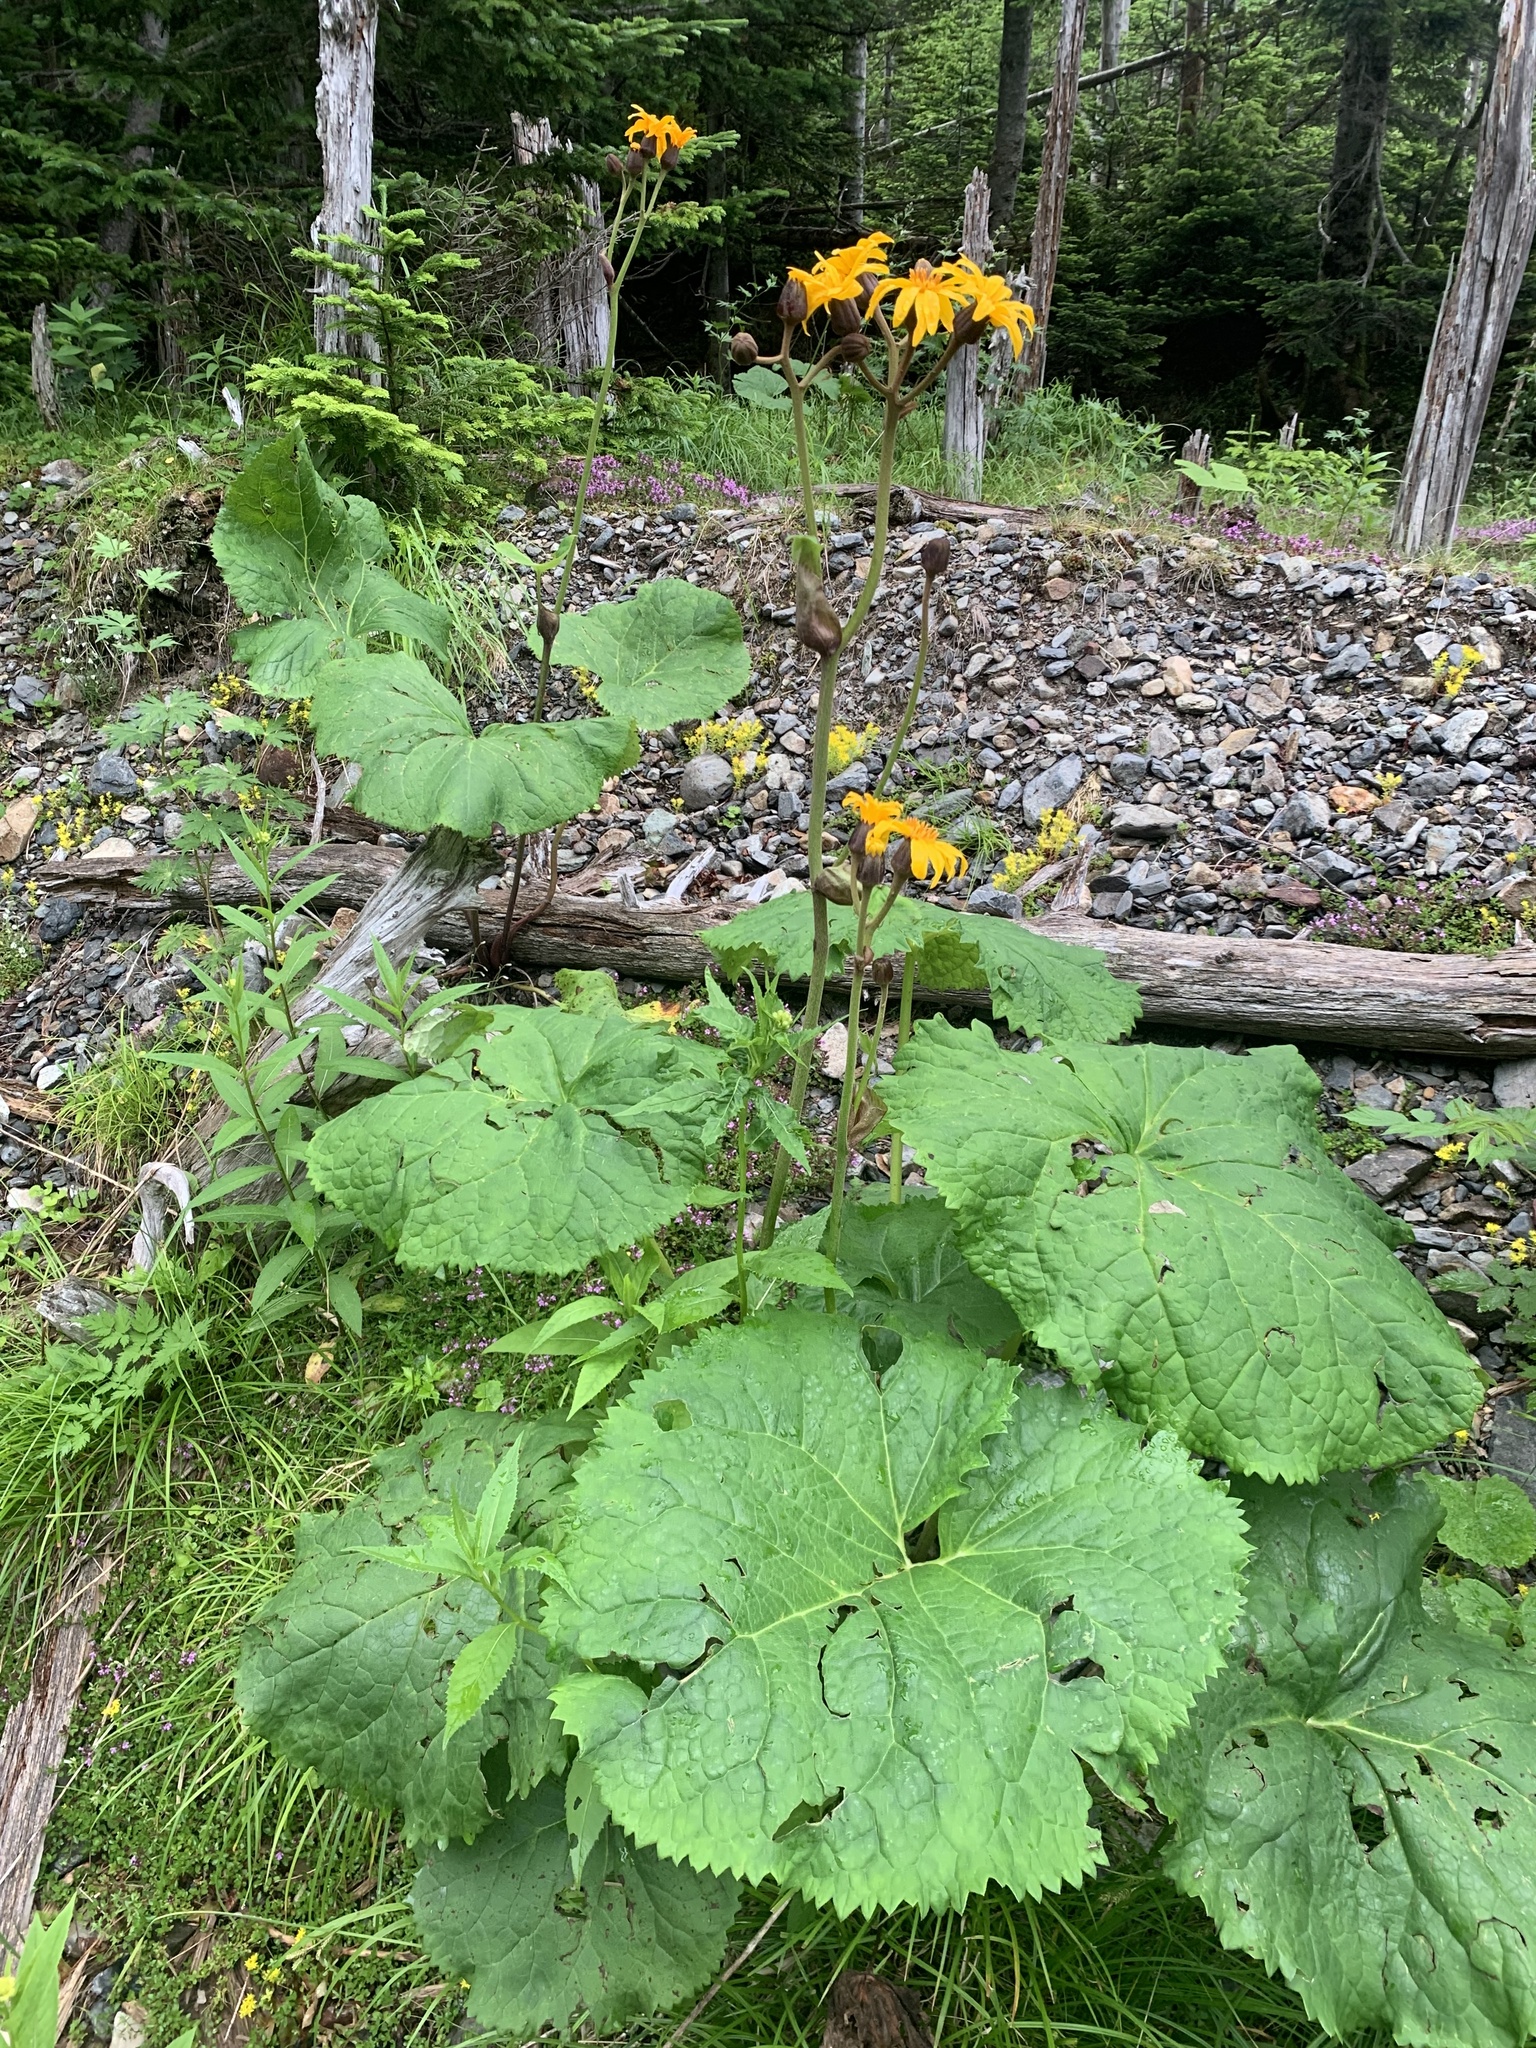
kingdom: Plantae
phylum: Tracheophyta
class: Magnoliopsida
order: Asterales
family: Asteraceae
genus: Ligularia
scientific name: Ligularia dentata
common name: Leopardplant
